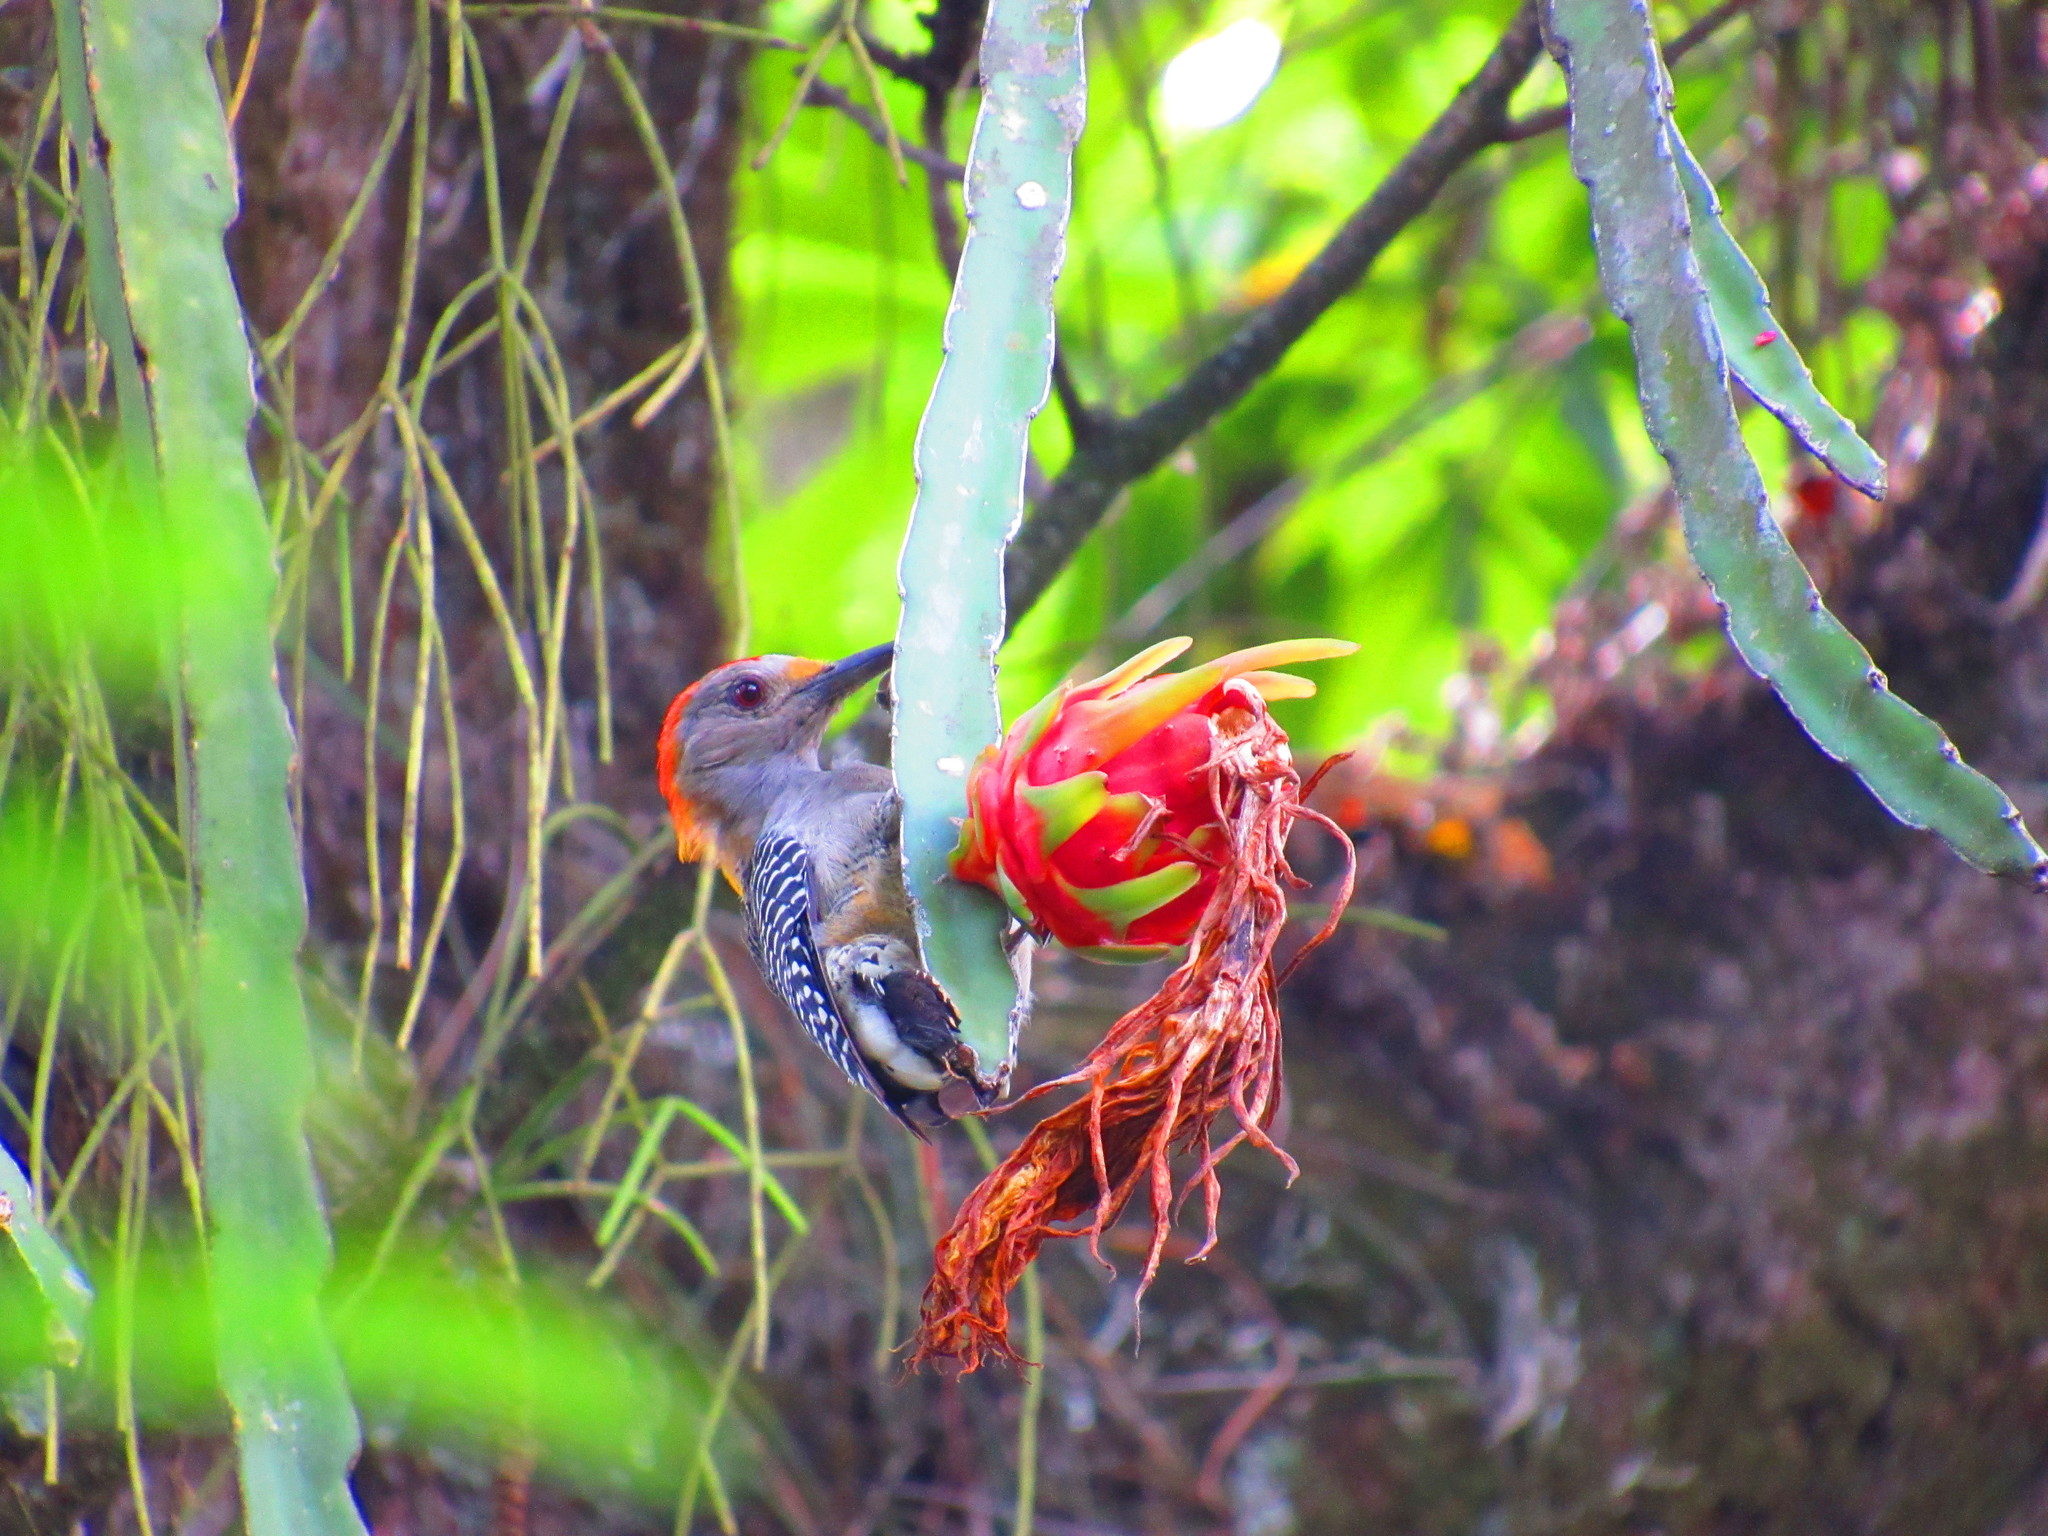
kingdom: Animalia
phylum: Chordata
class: Aves
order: Piciformes
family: Picidae
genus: Melanerpes
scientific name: Melanerpes aurifrons
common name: Golden-fronted woodpecker
